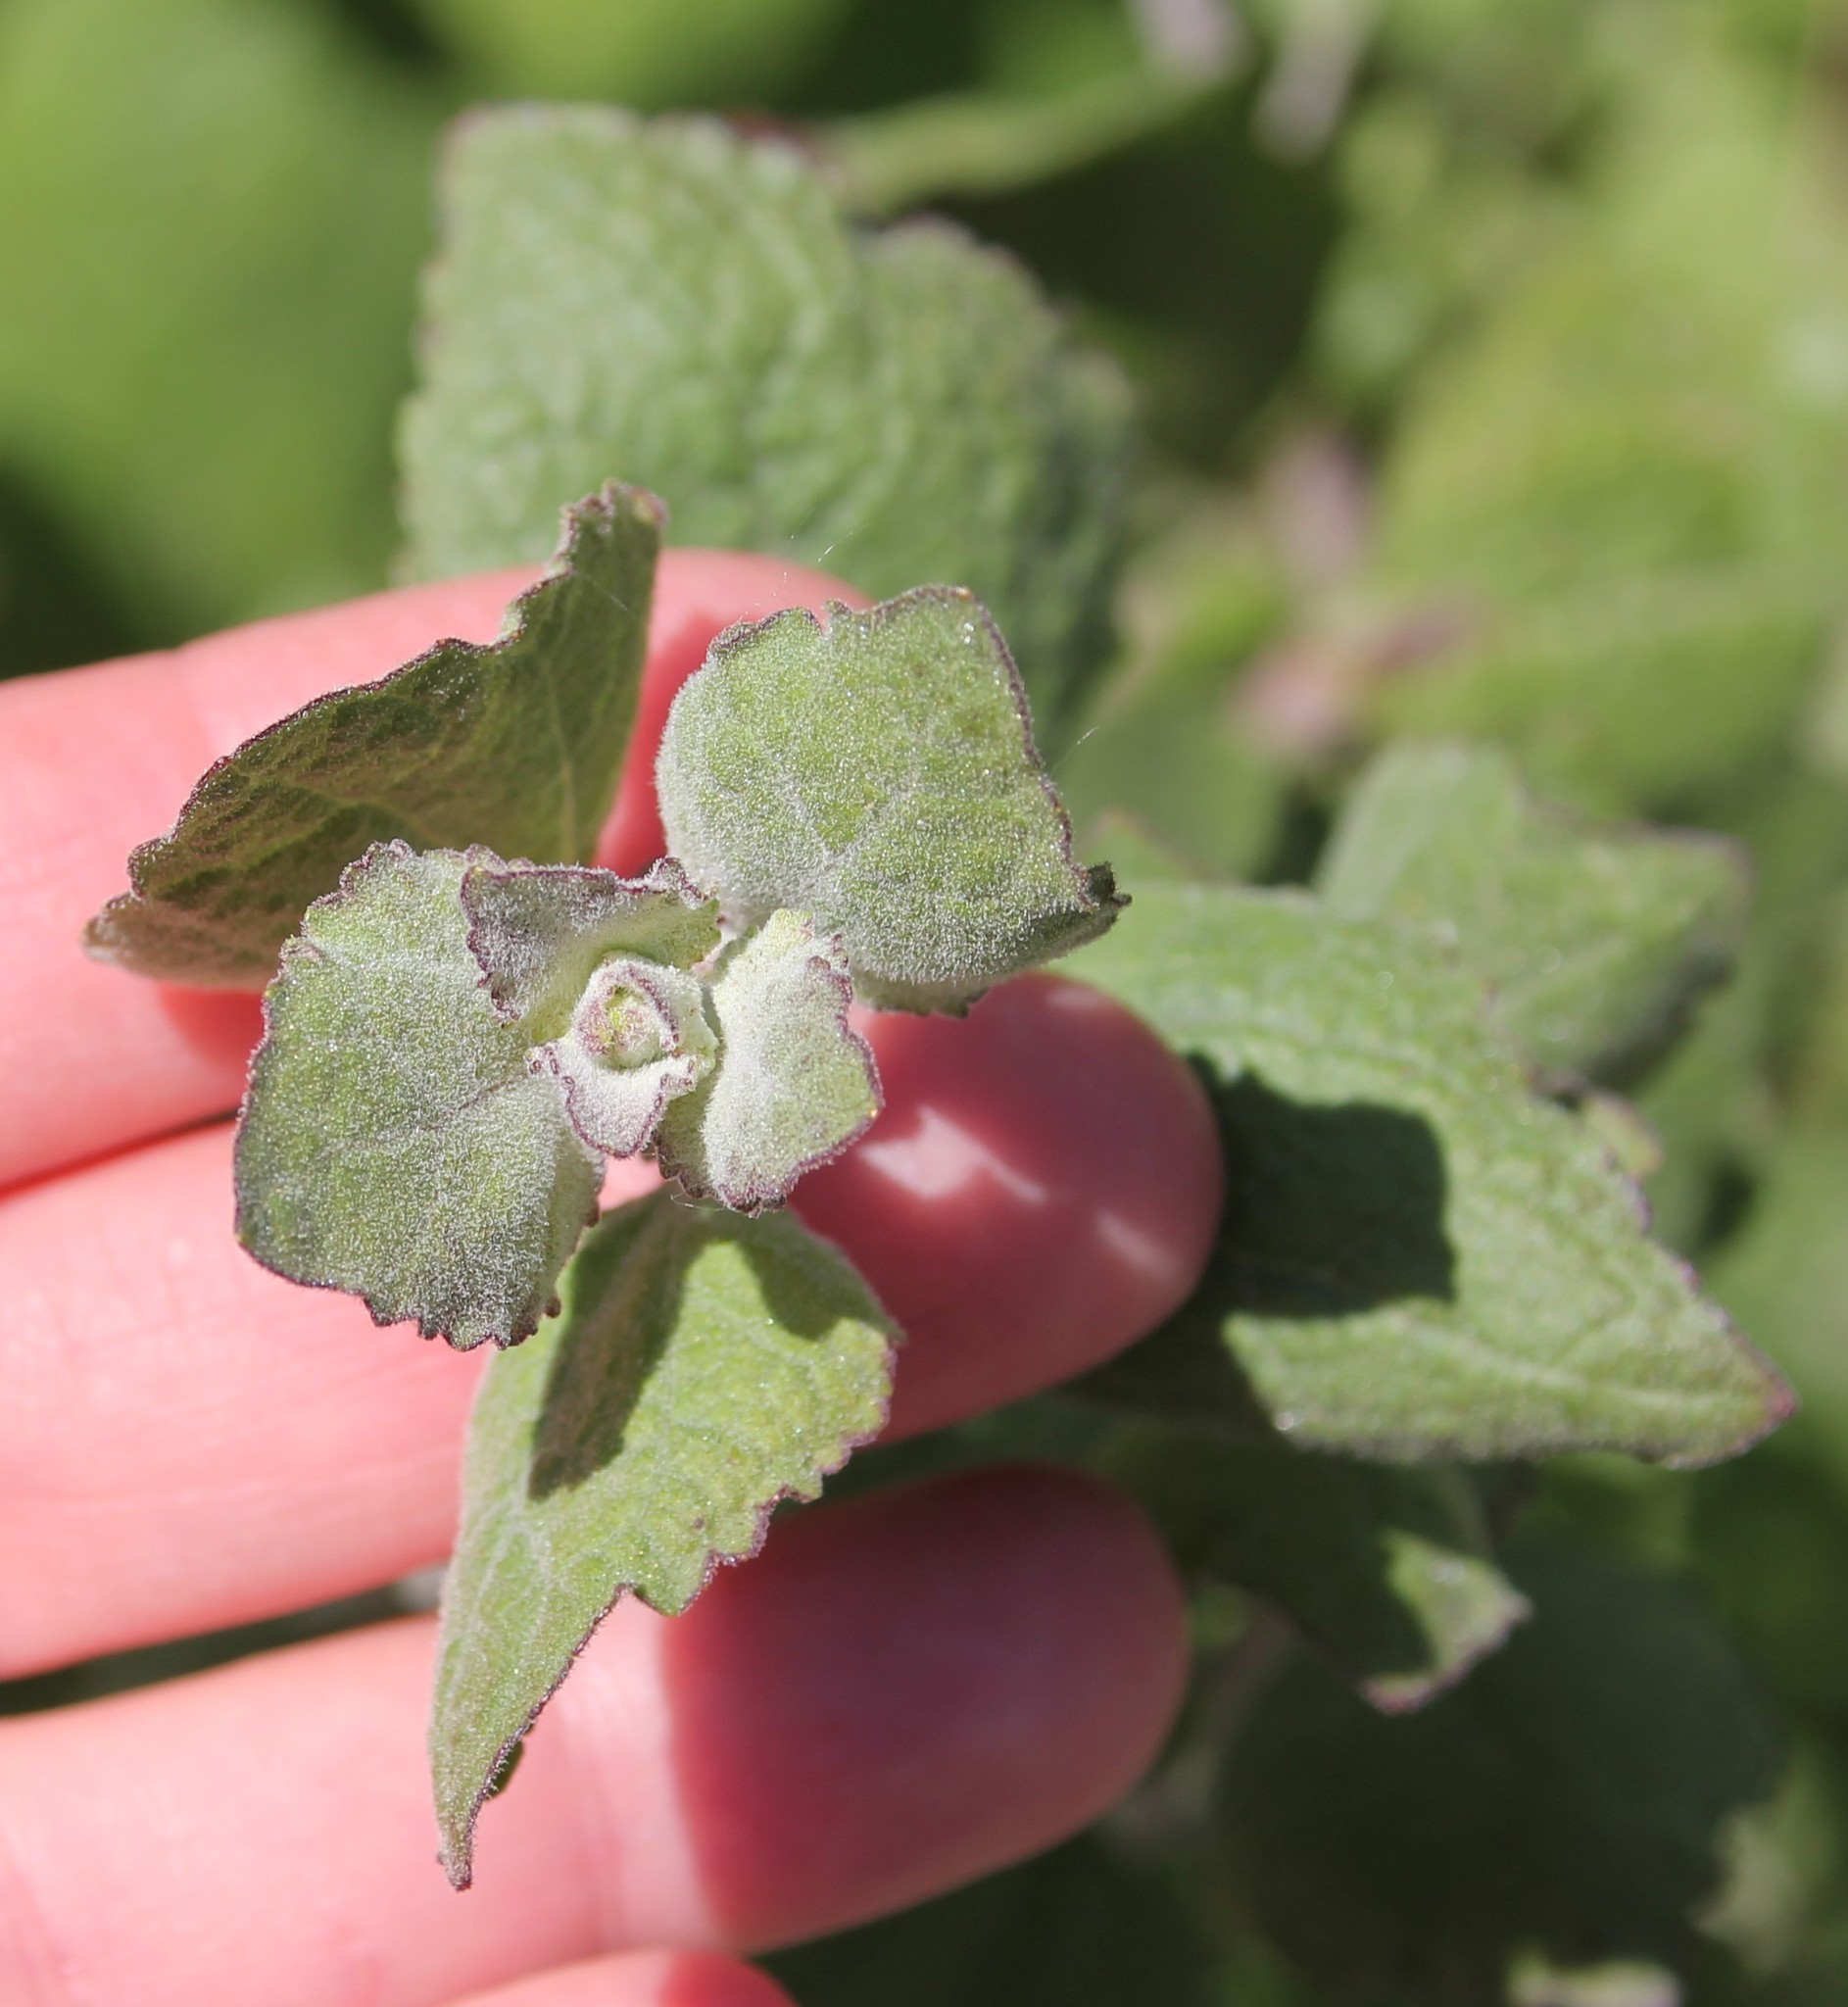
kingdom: Plantae
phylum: Tracheophyta
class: Magnoliopsida
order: Asterales
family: Asteraceae
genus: Brickellia
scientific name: Brickellia californica
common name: California brickellbush
